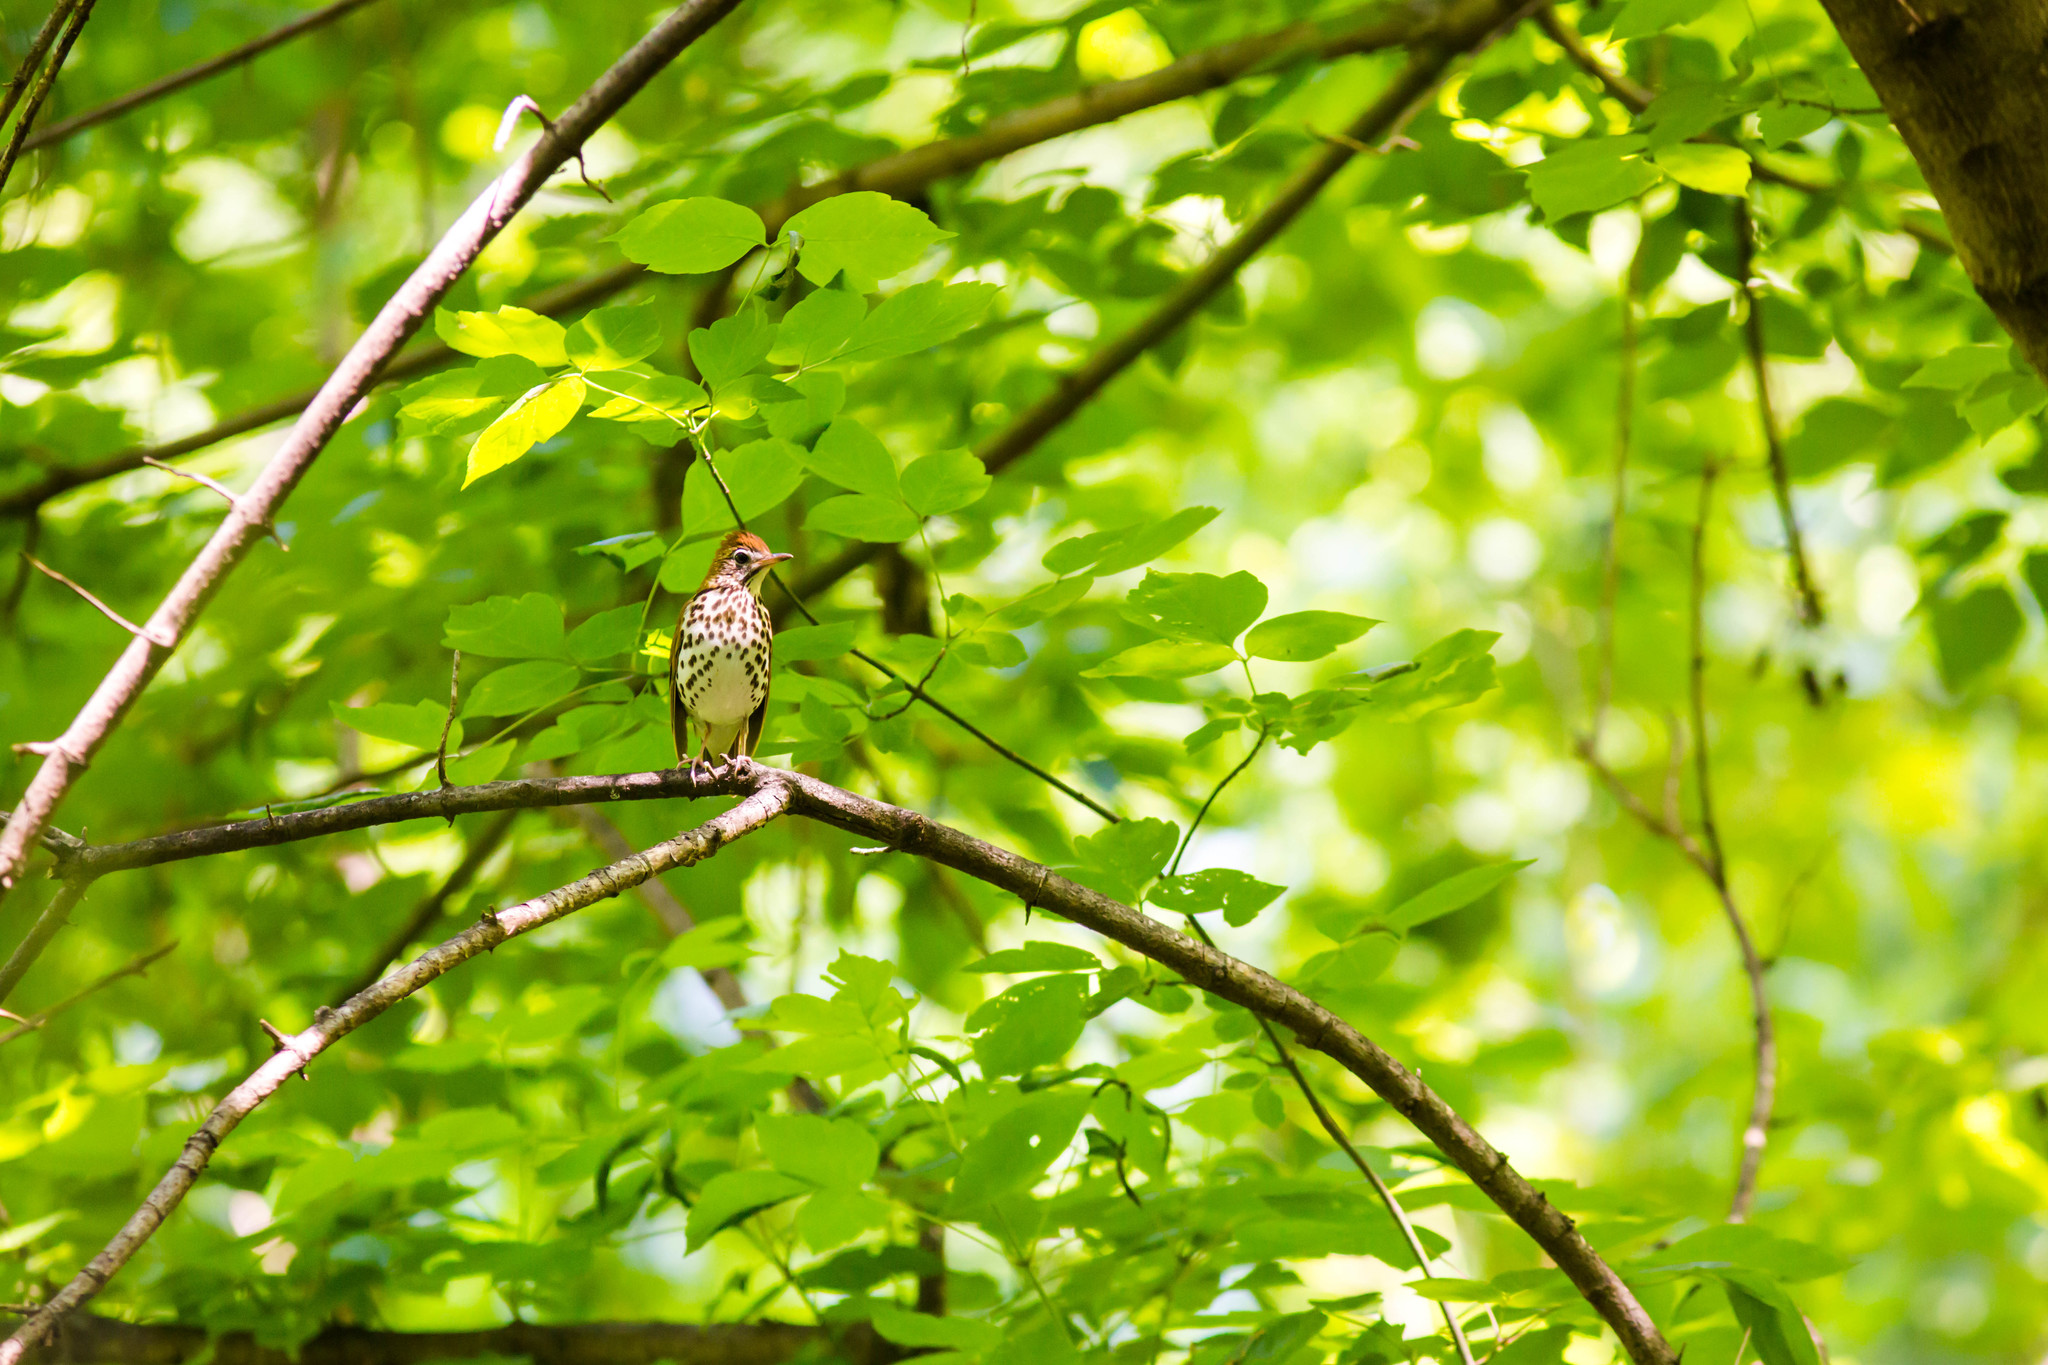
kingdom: Animalia
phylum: Chordata
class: Aves
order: Passeriformes
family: Turdidae
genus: Hylocichla
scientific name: Hylocichla mustelina
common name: Wood thrush
